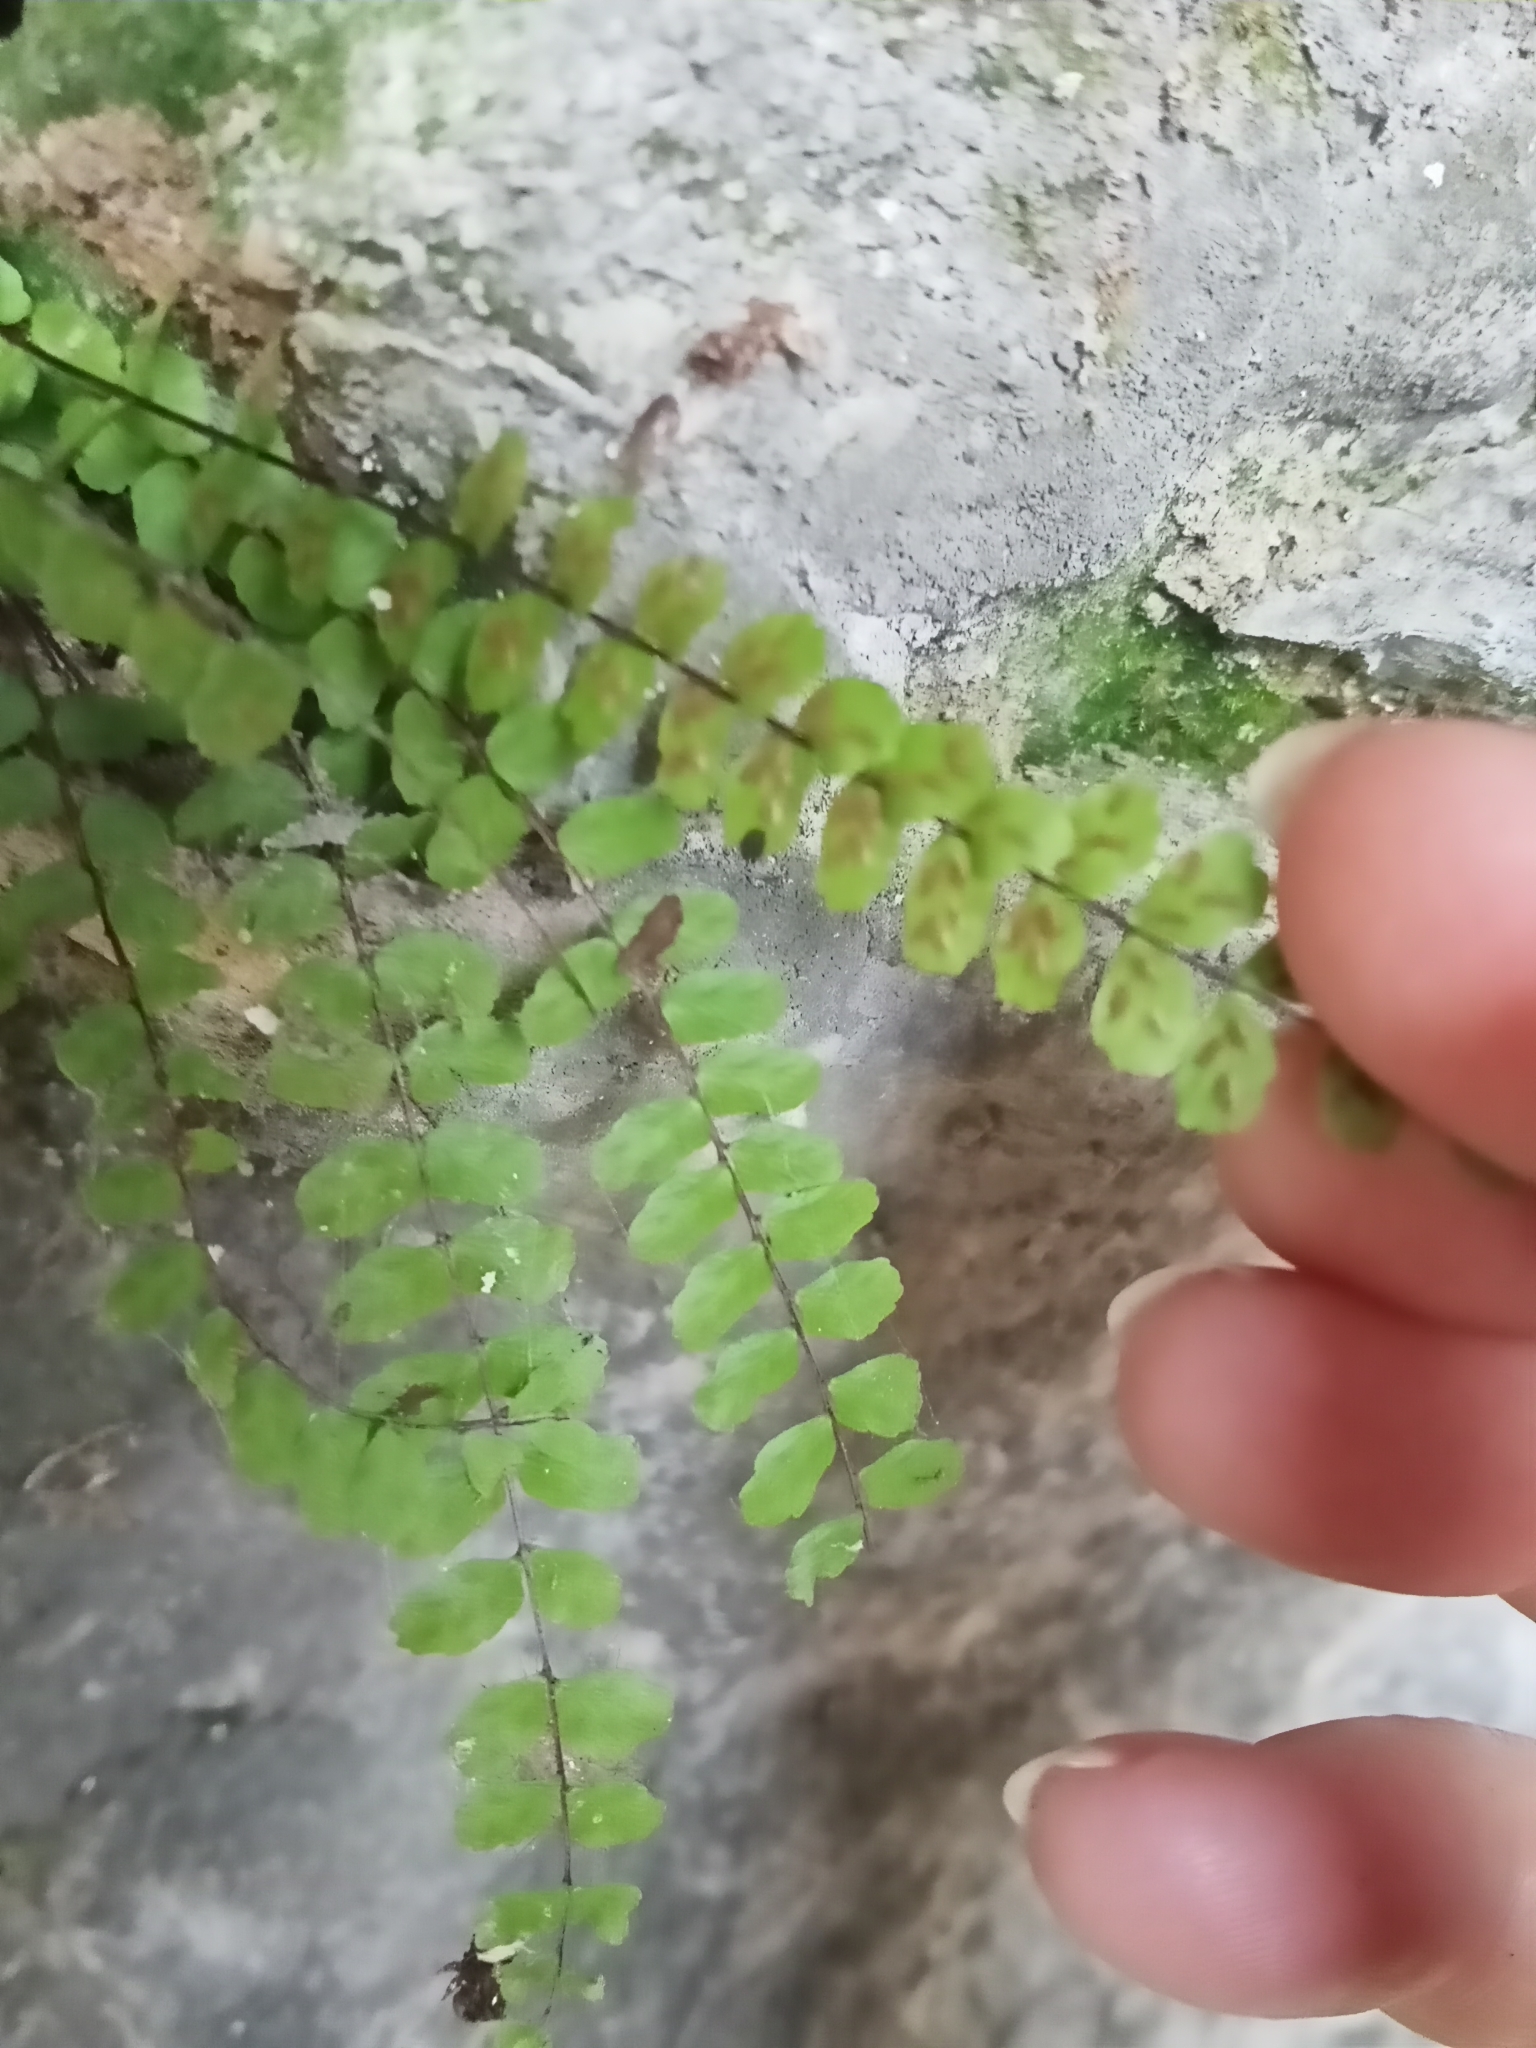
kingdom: Plantae
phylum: Tracheophyta
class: Polypodiopsida
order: Polypodiales
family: Aspleniaceae
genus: Asplenium
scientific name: Asplenium trichomanes
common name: Maidenhair spleenwort
